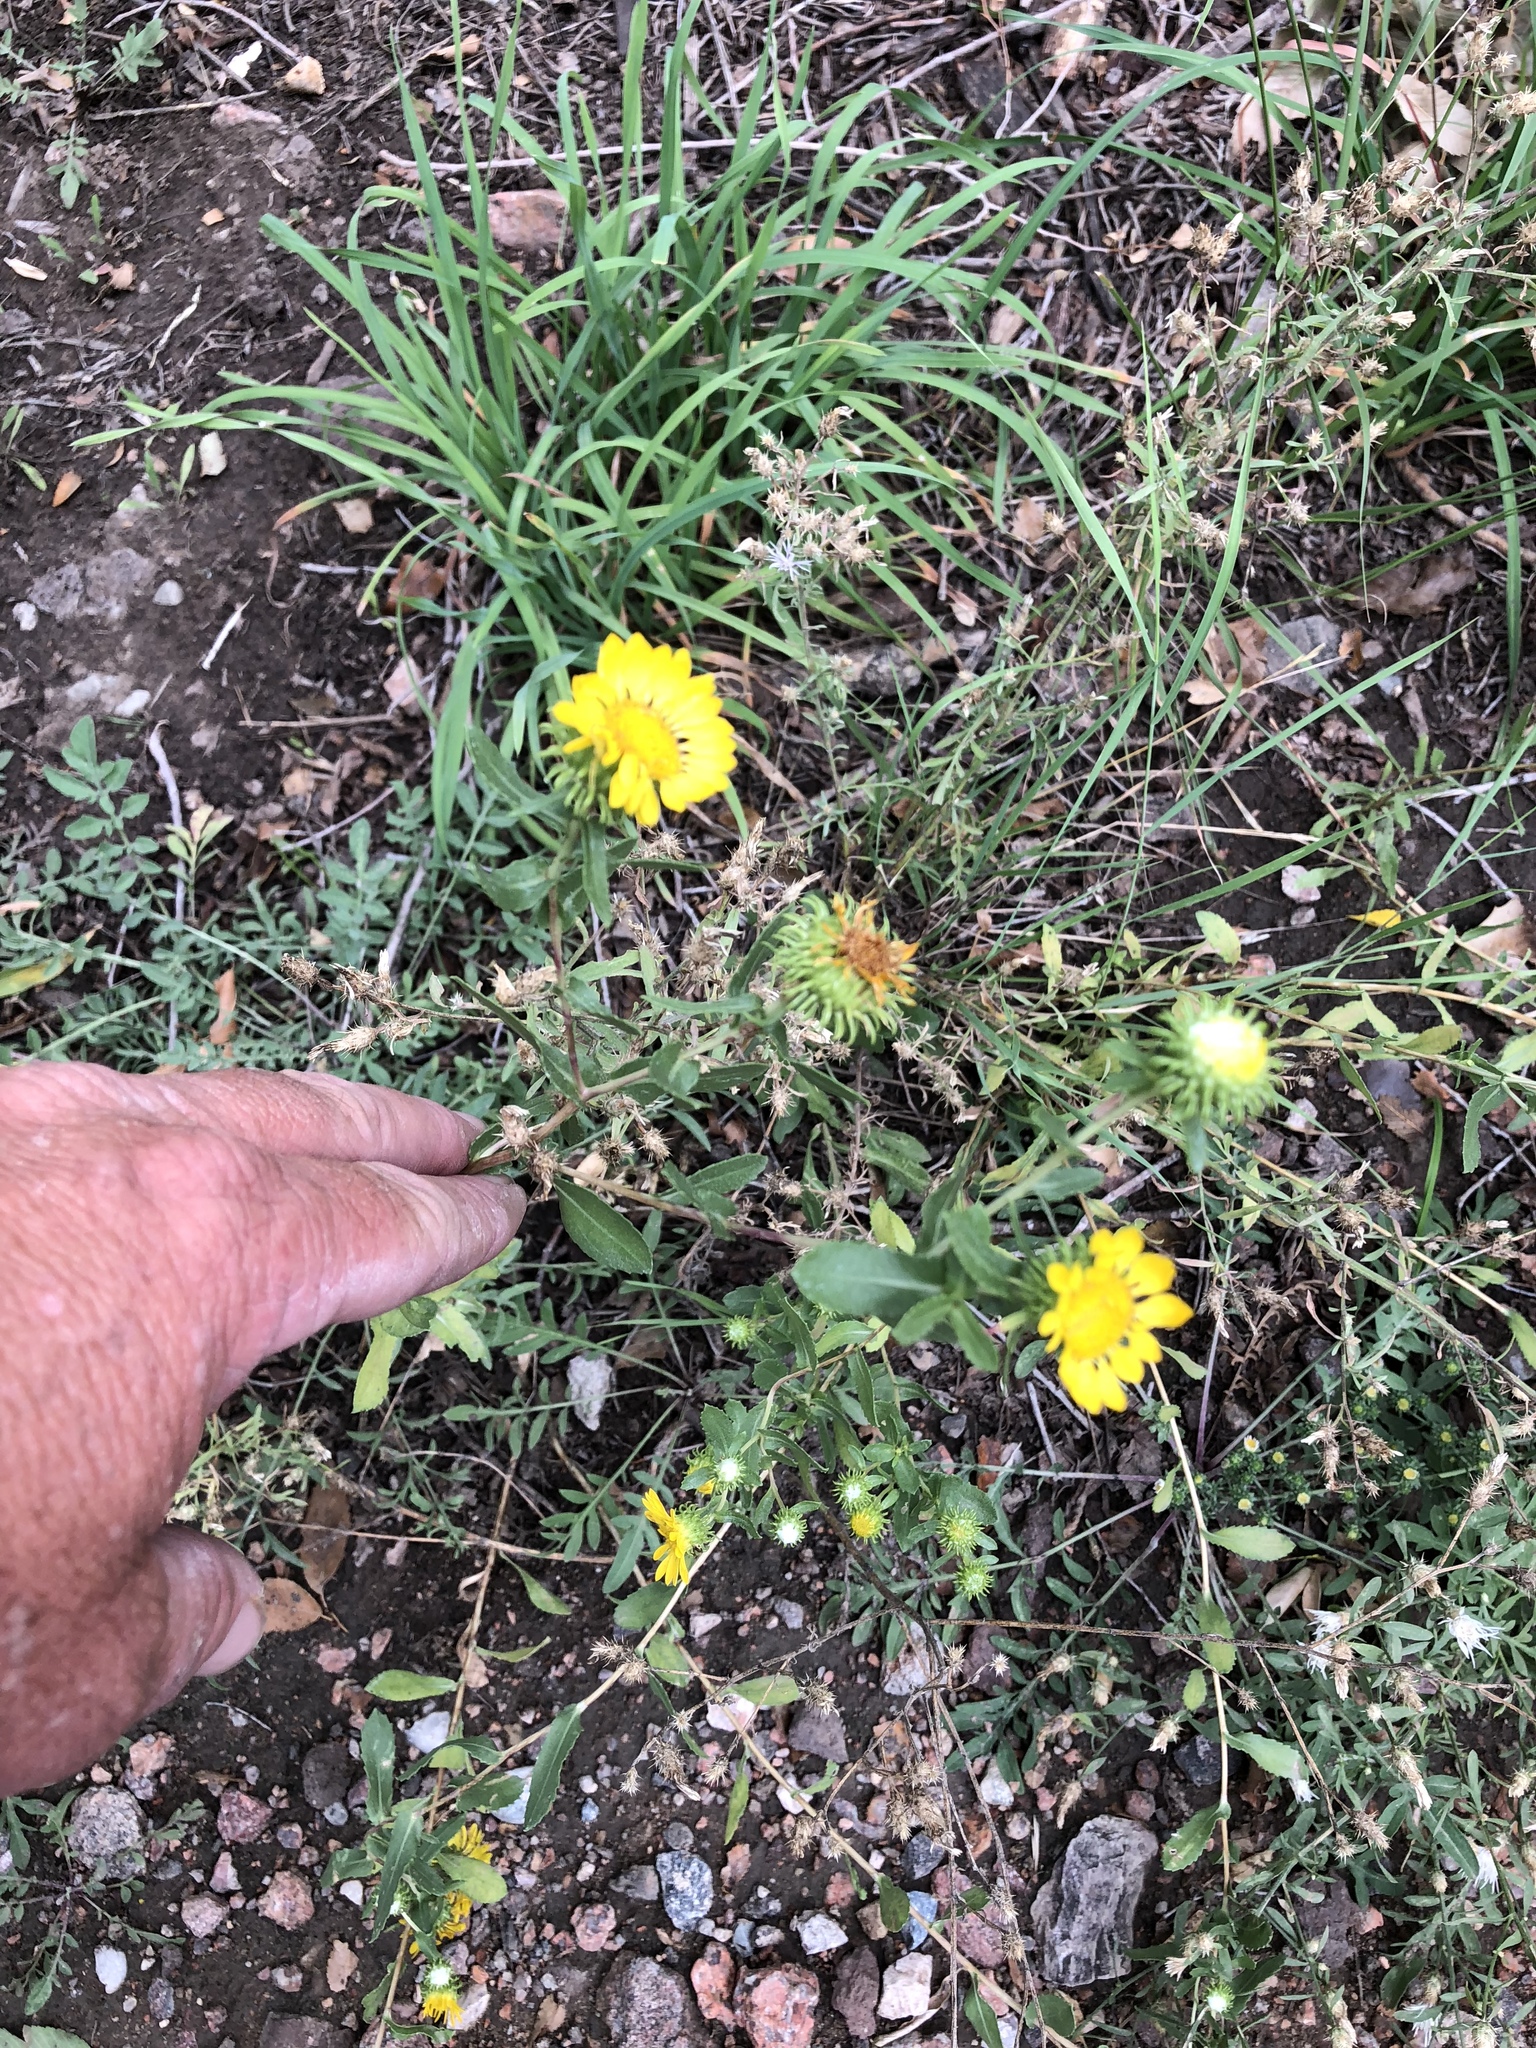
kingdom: Plantae
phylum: Tracheophyta
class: Magnoliopsida
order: Asterales
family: Asteraceae
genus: Grindelia
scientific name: Grindelia squarrosa
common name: Curly-cup gumweed
